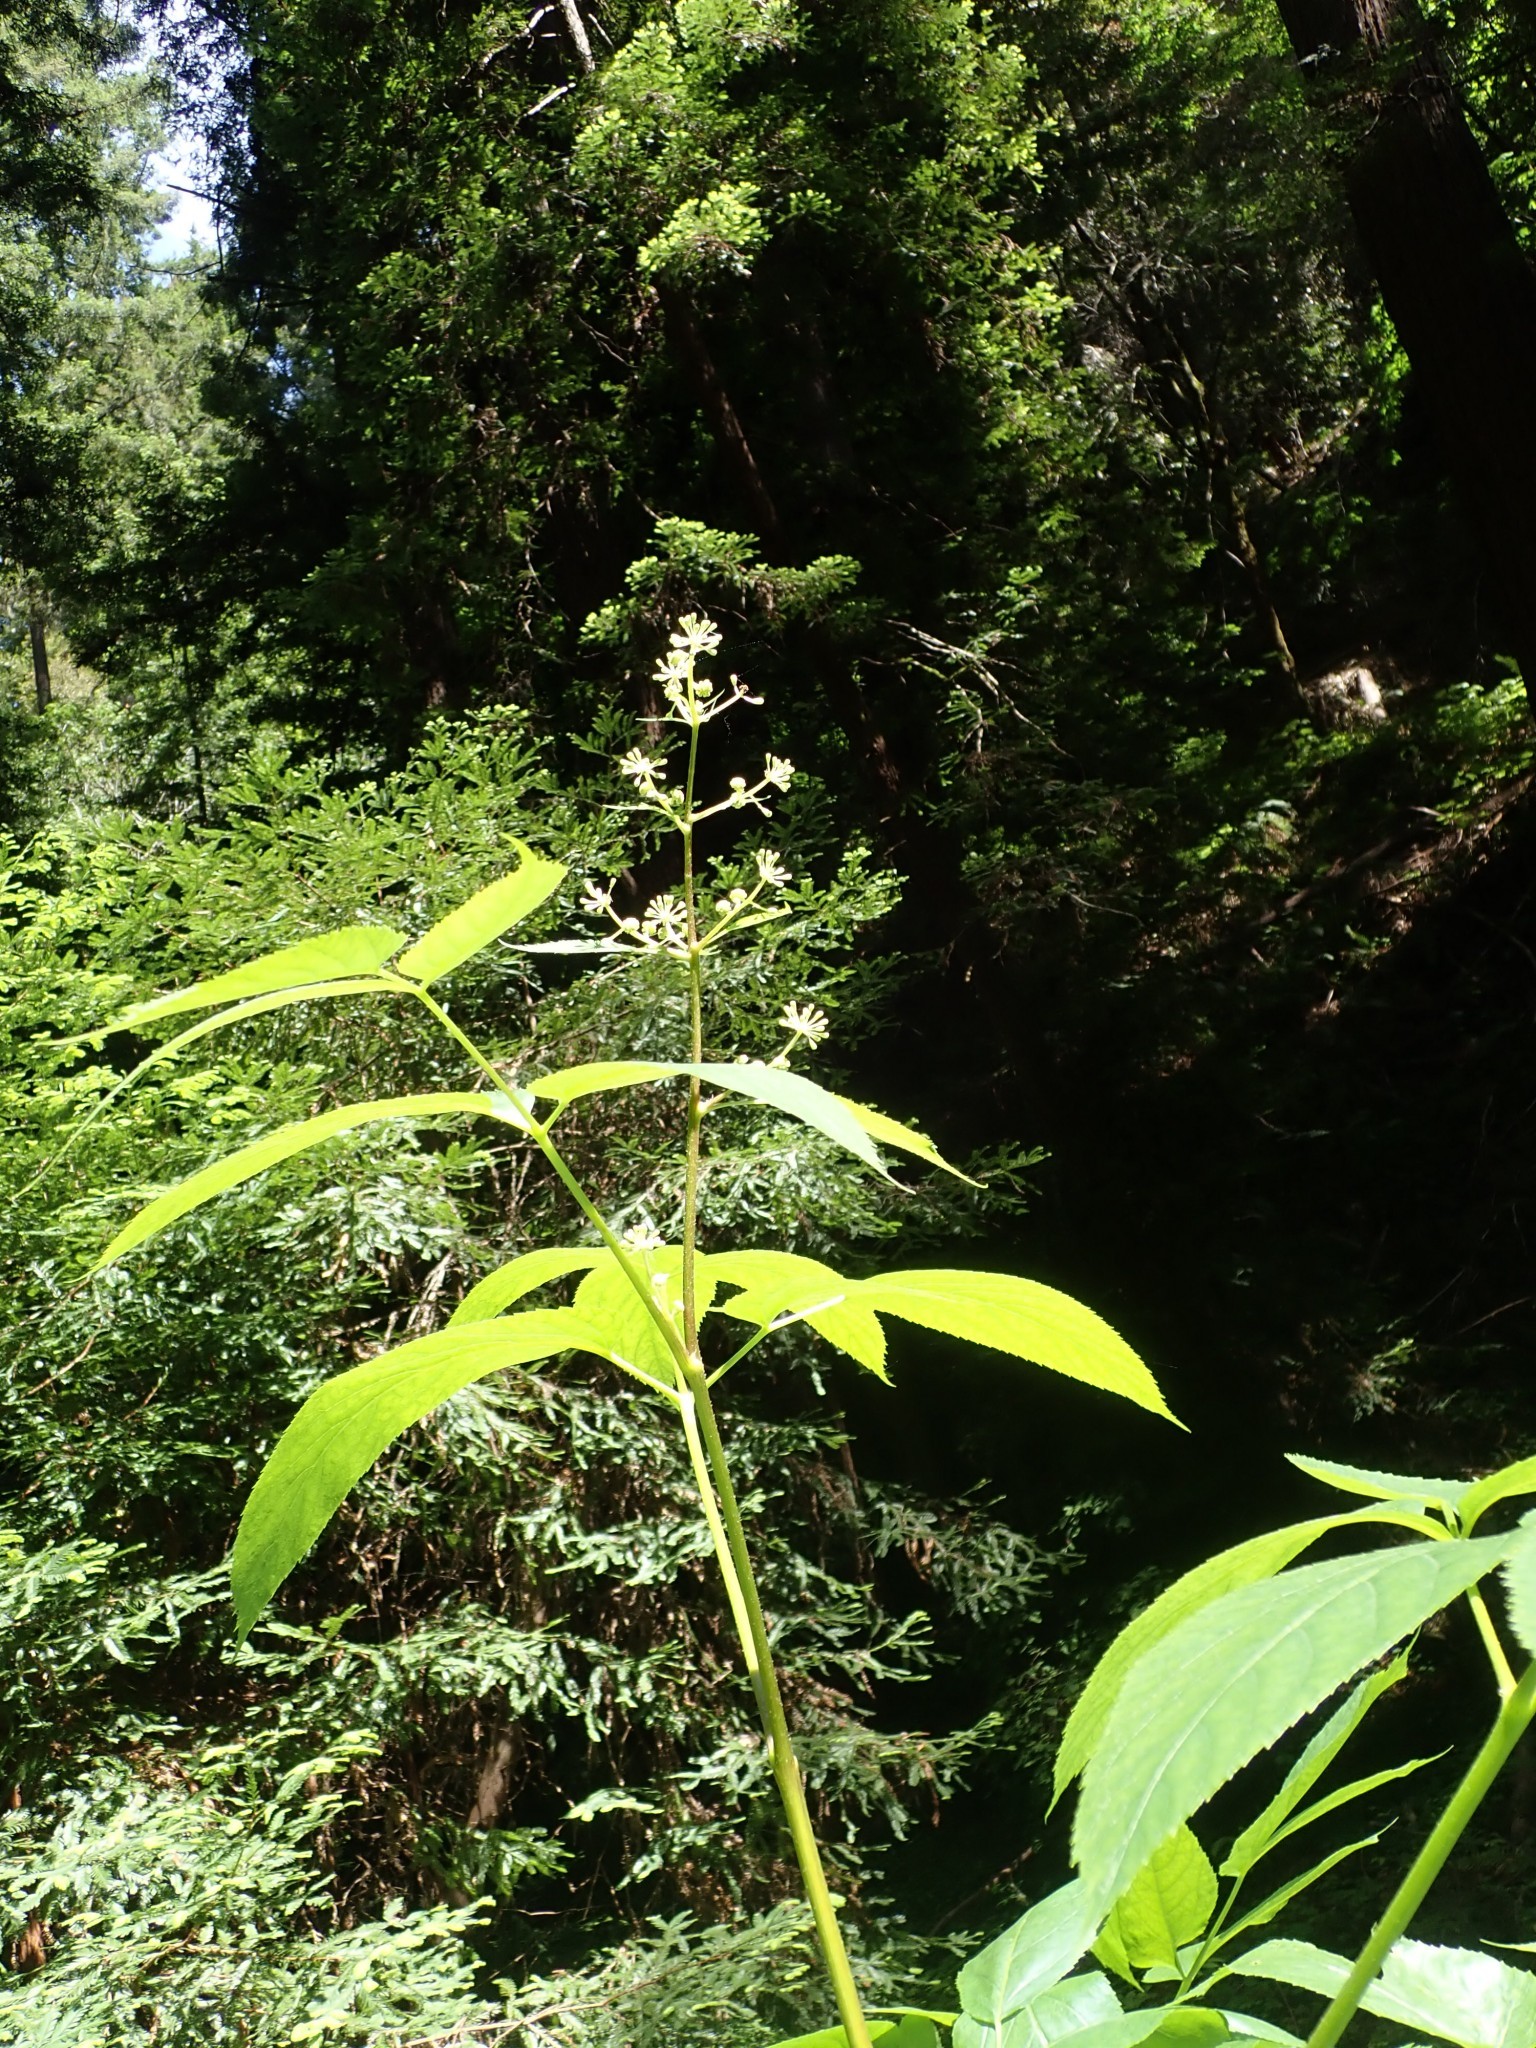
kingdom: Plantae
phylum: Tracheophyta
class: Magnoliopsida
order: Apiales
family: Araliaceae
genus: Aralia
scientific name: Aralia californica
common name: California-ginseng
